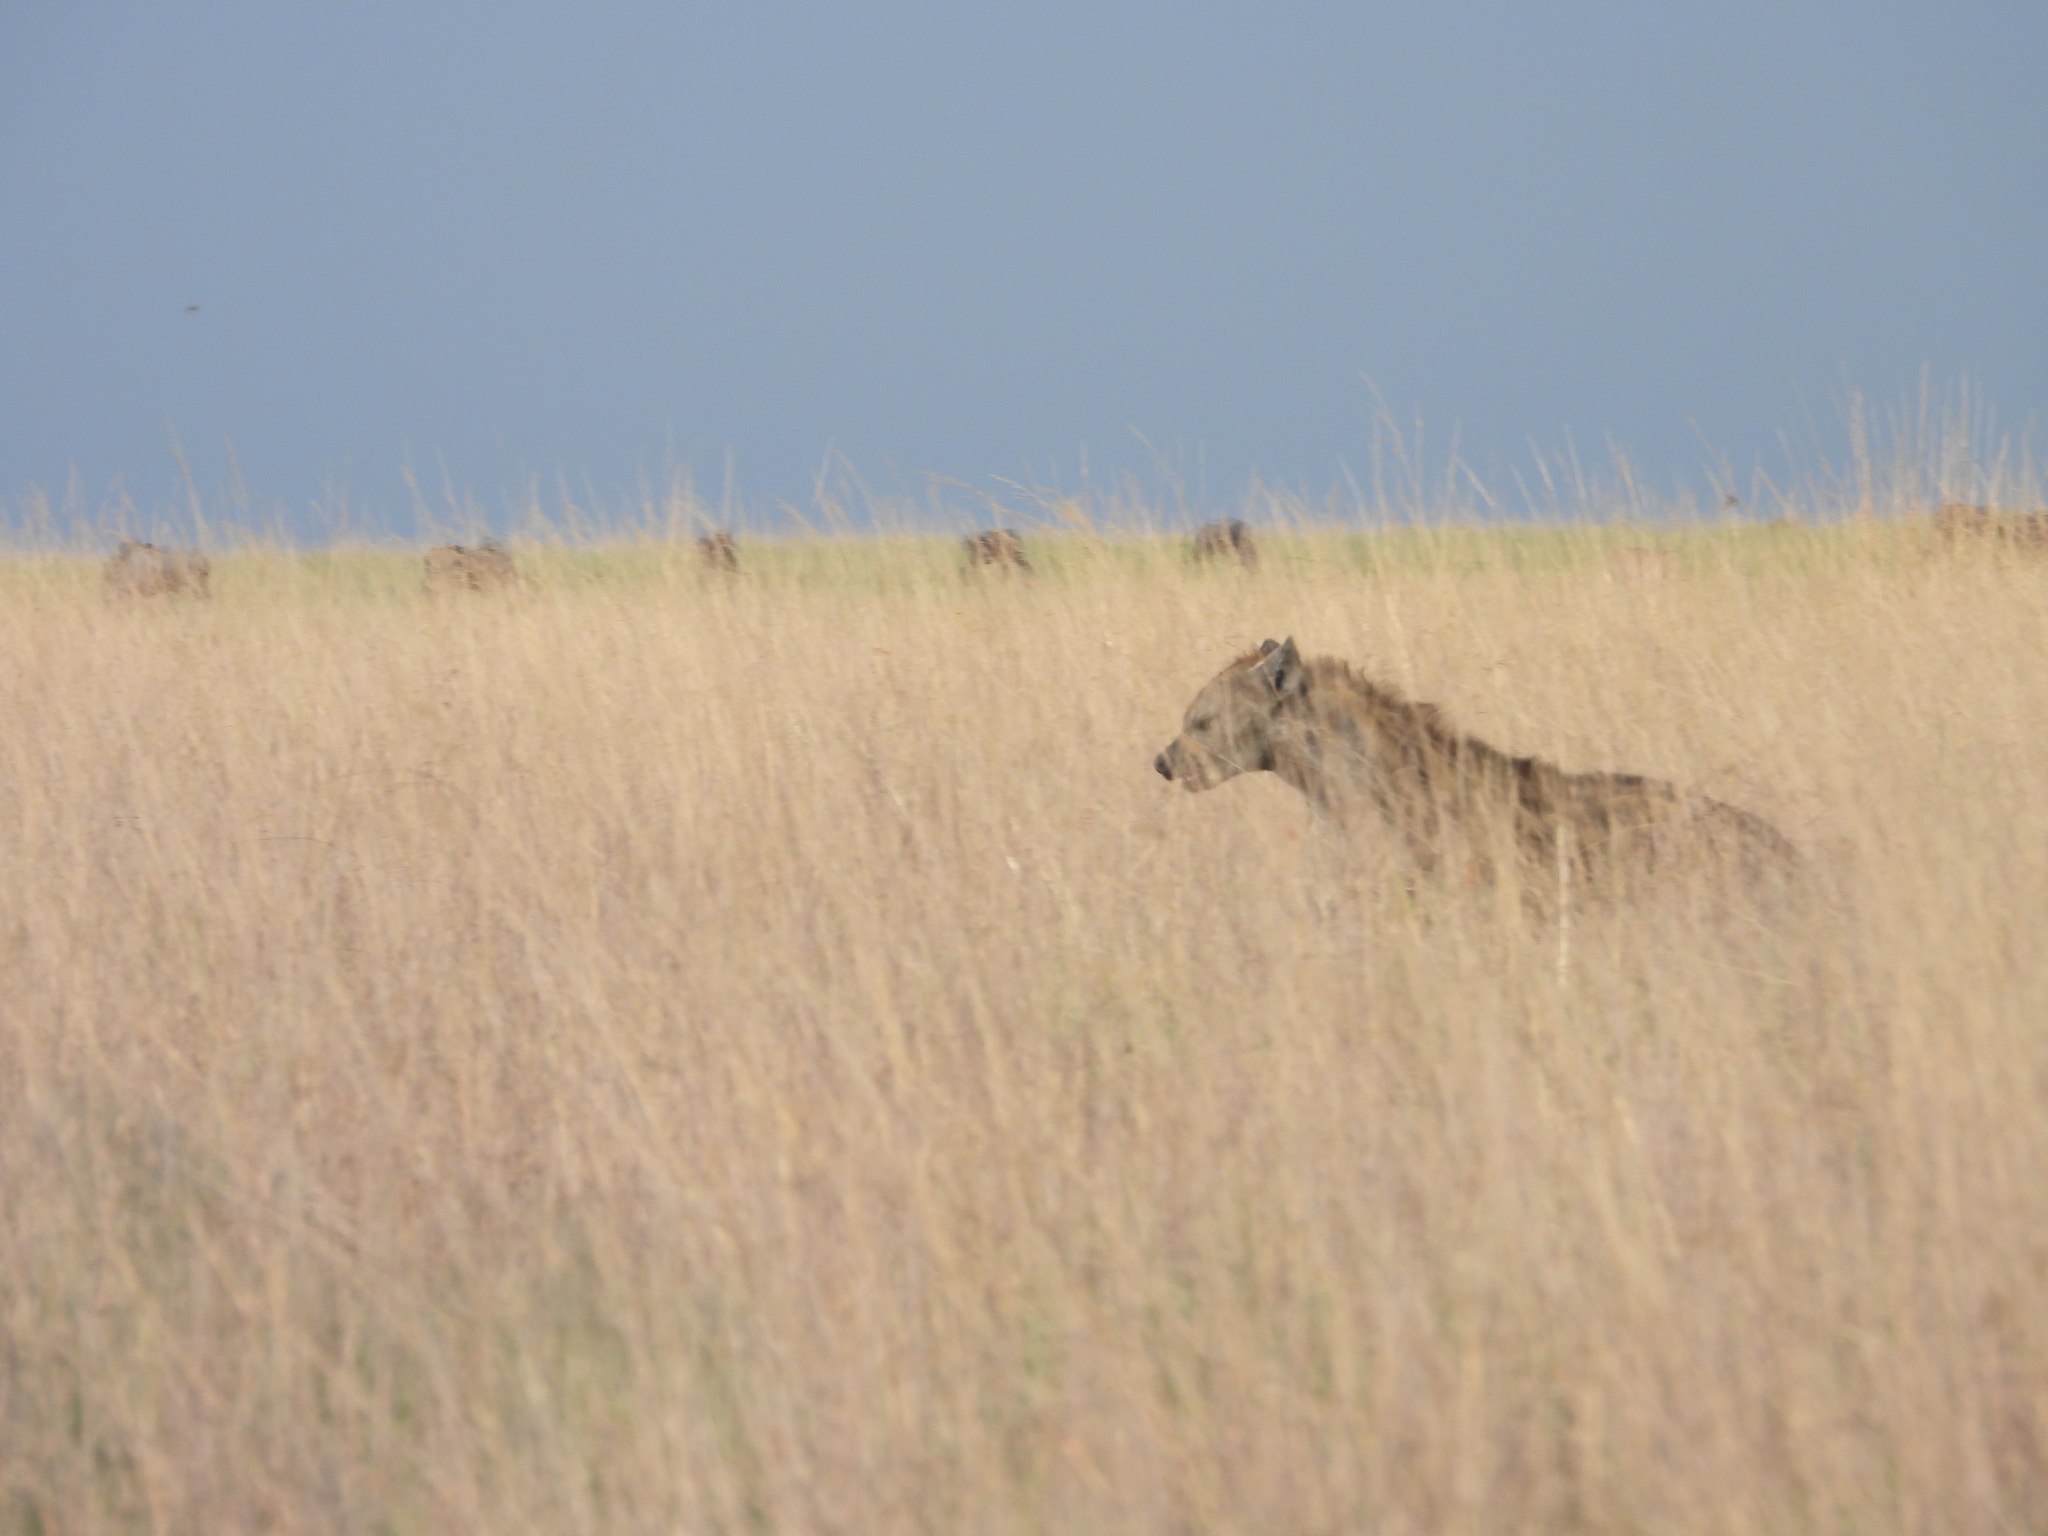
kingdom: Animalia
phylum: Chordata
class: Mammalia
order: Carnivora
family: Hyaenidae
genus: Crocuta
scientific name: Crocuta crocuta
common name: Spotted hyaena
